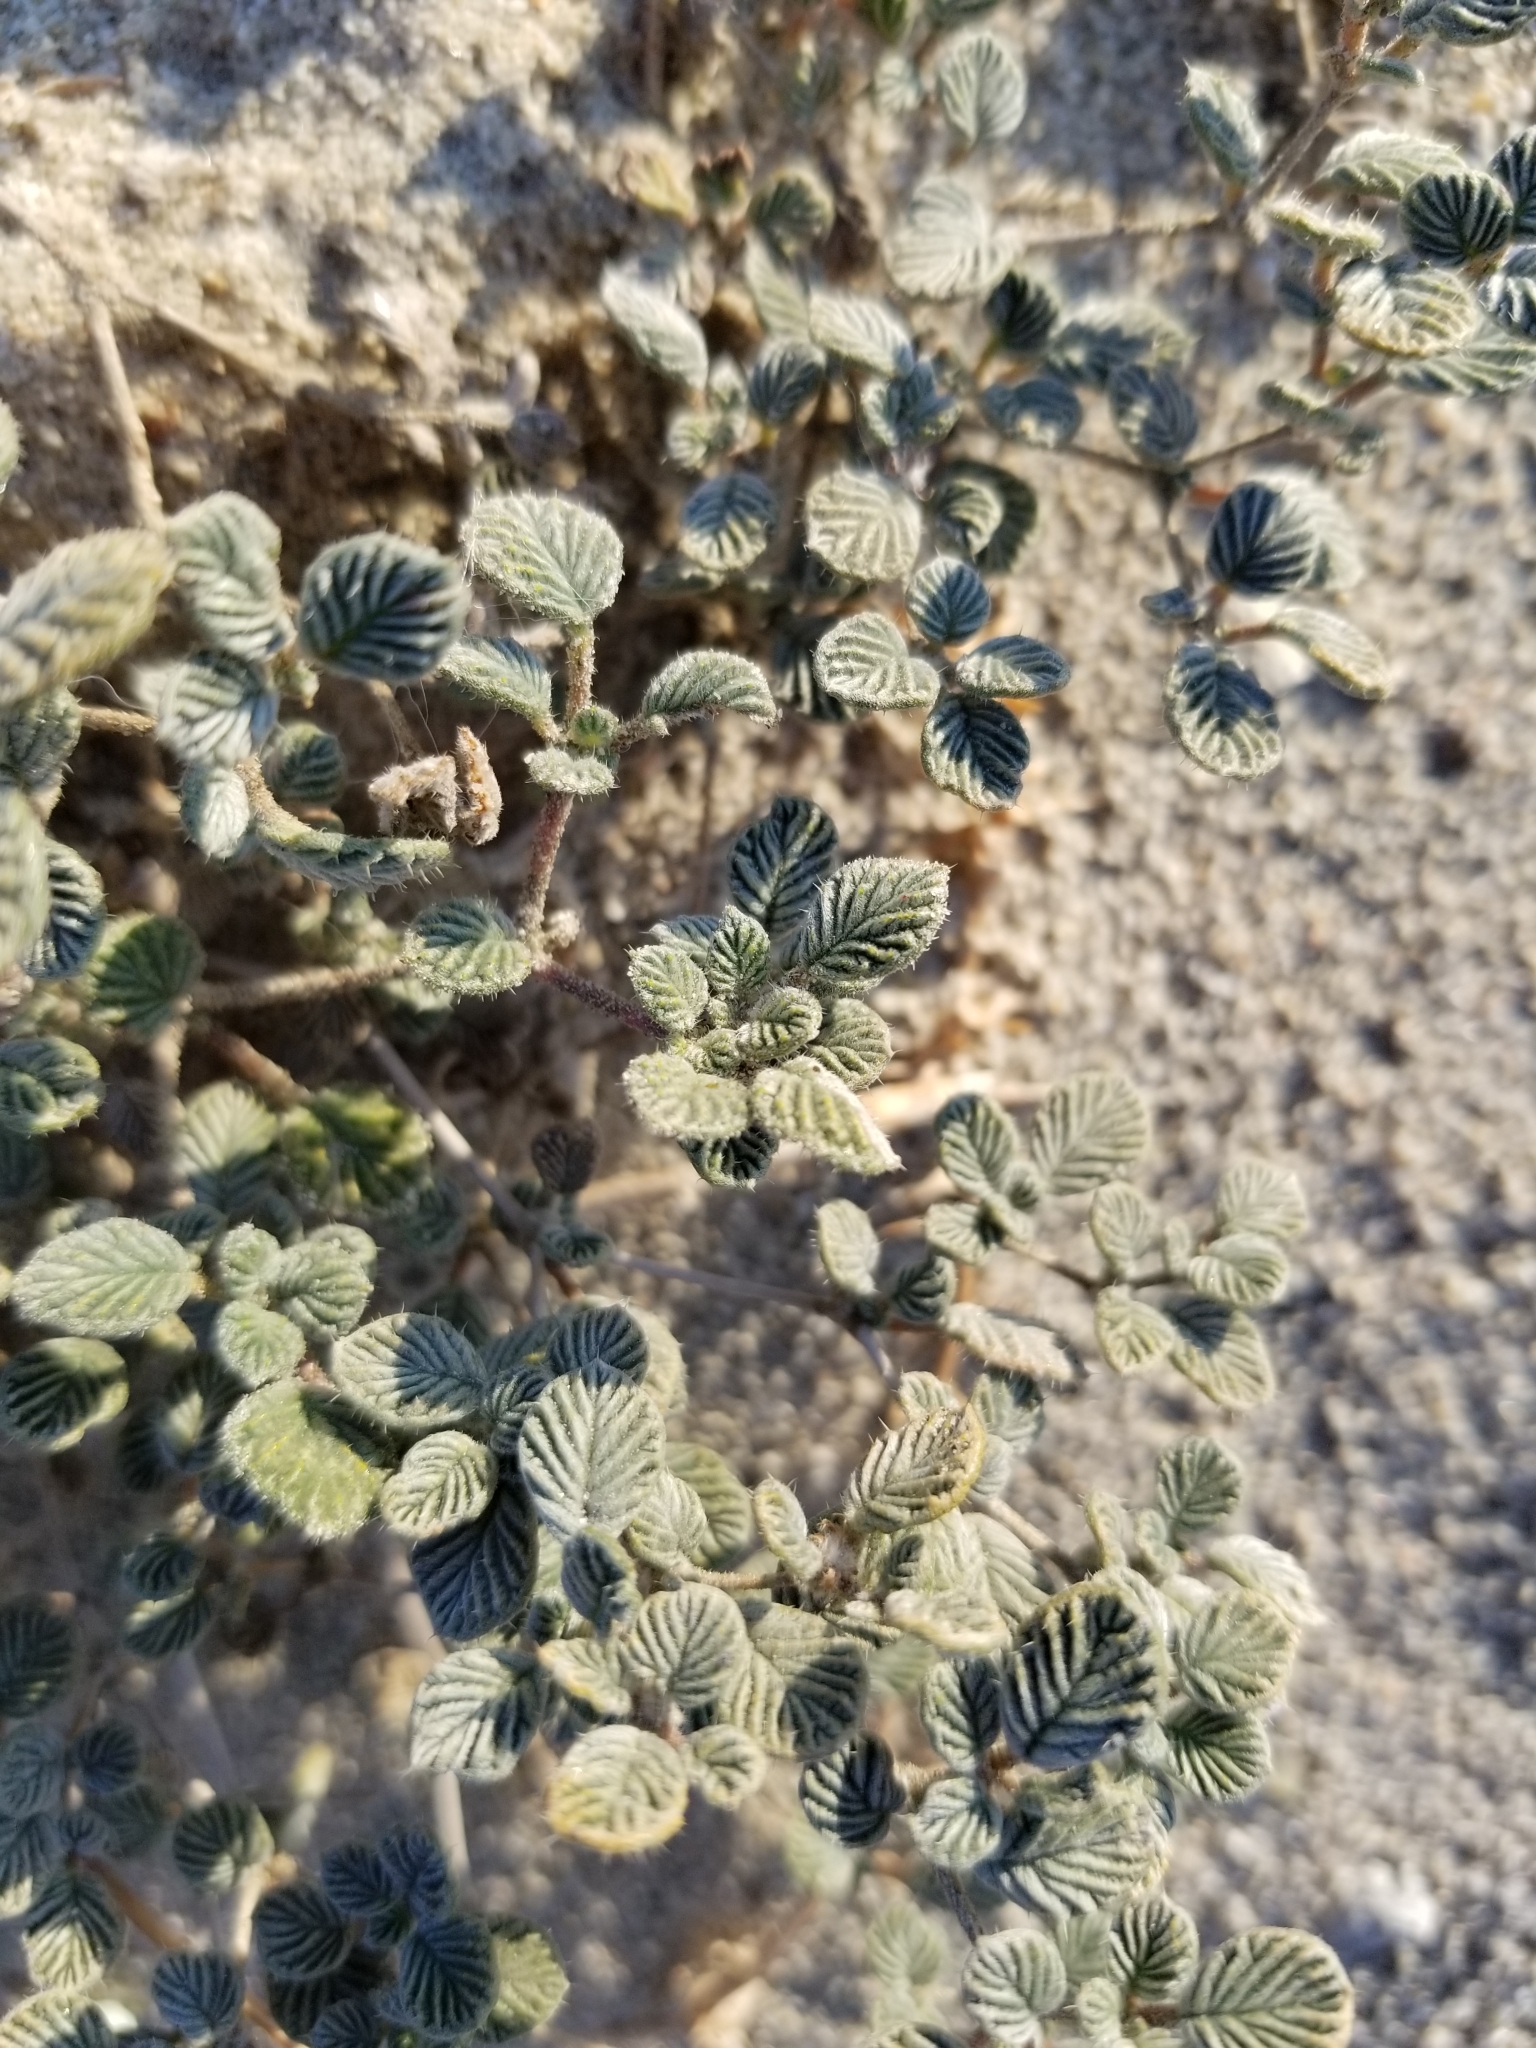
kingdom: Plantae
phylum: Tracheophyta
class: Magnoliopsida
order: Boraginales
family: Ehretiaceae
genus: Tiquilia
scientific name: Tiquilia plicata
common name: Fan-leaf tiquilia
